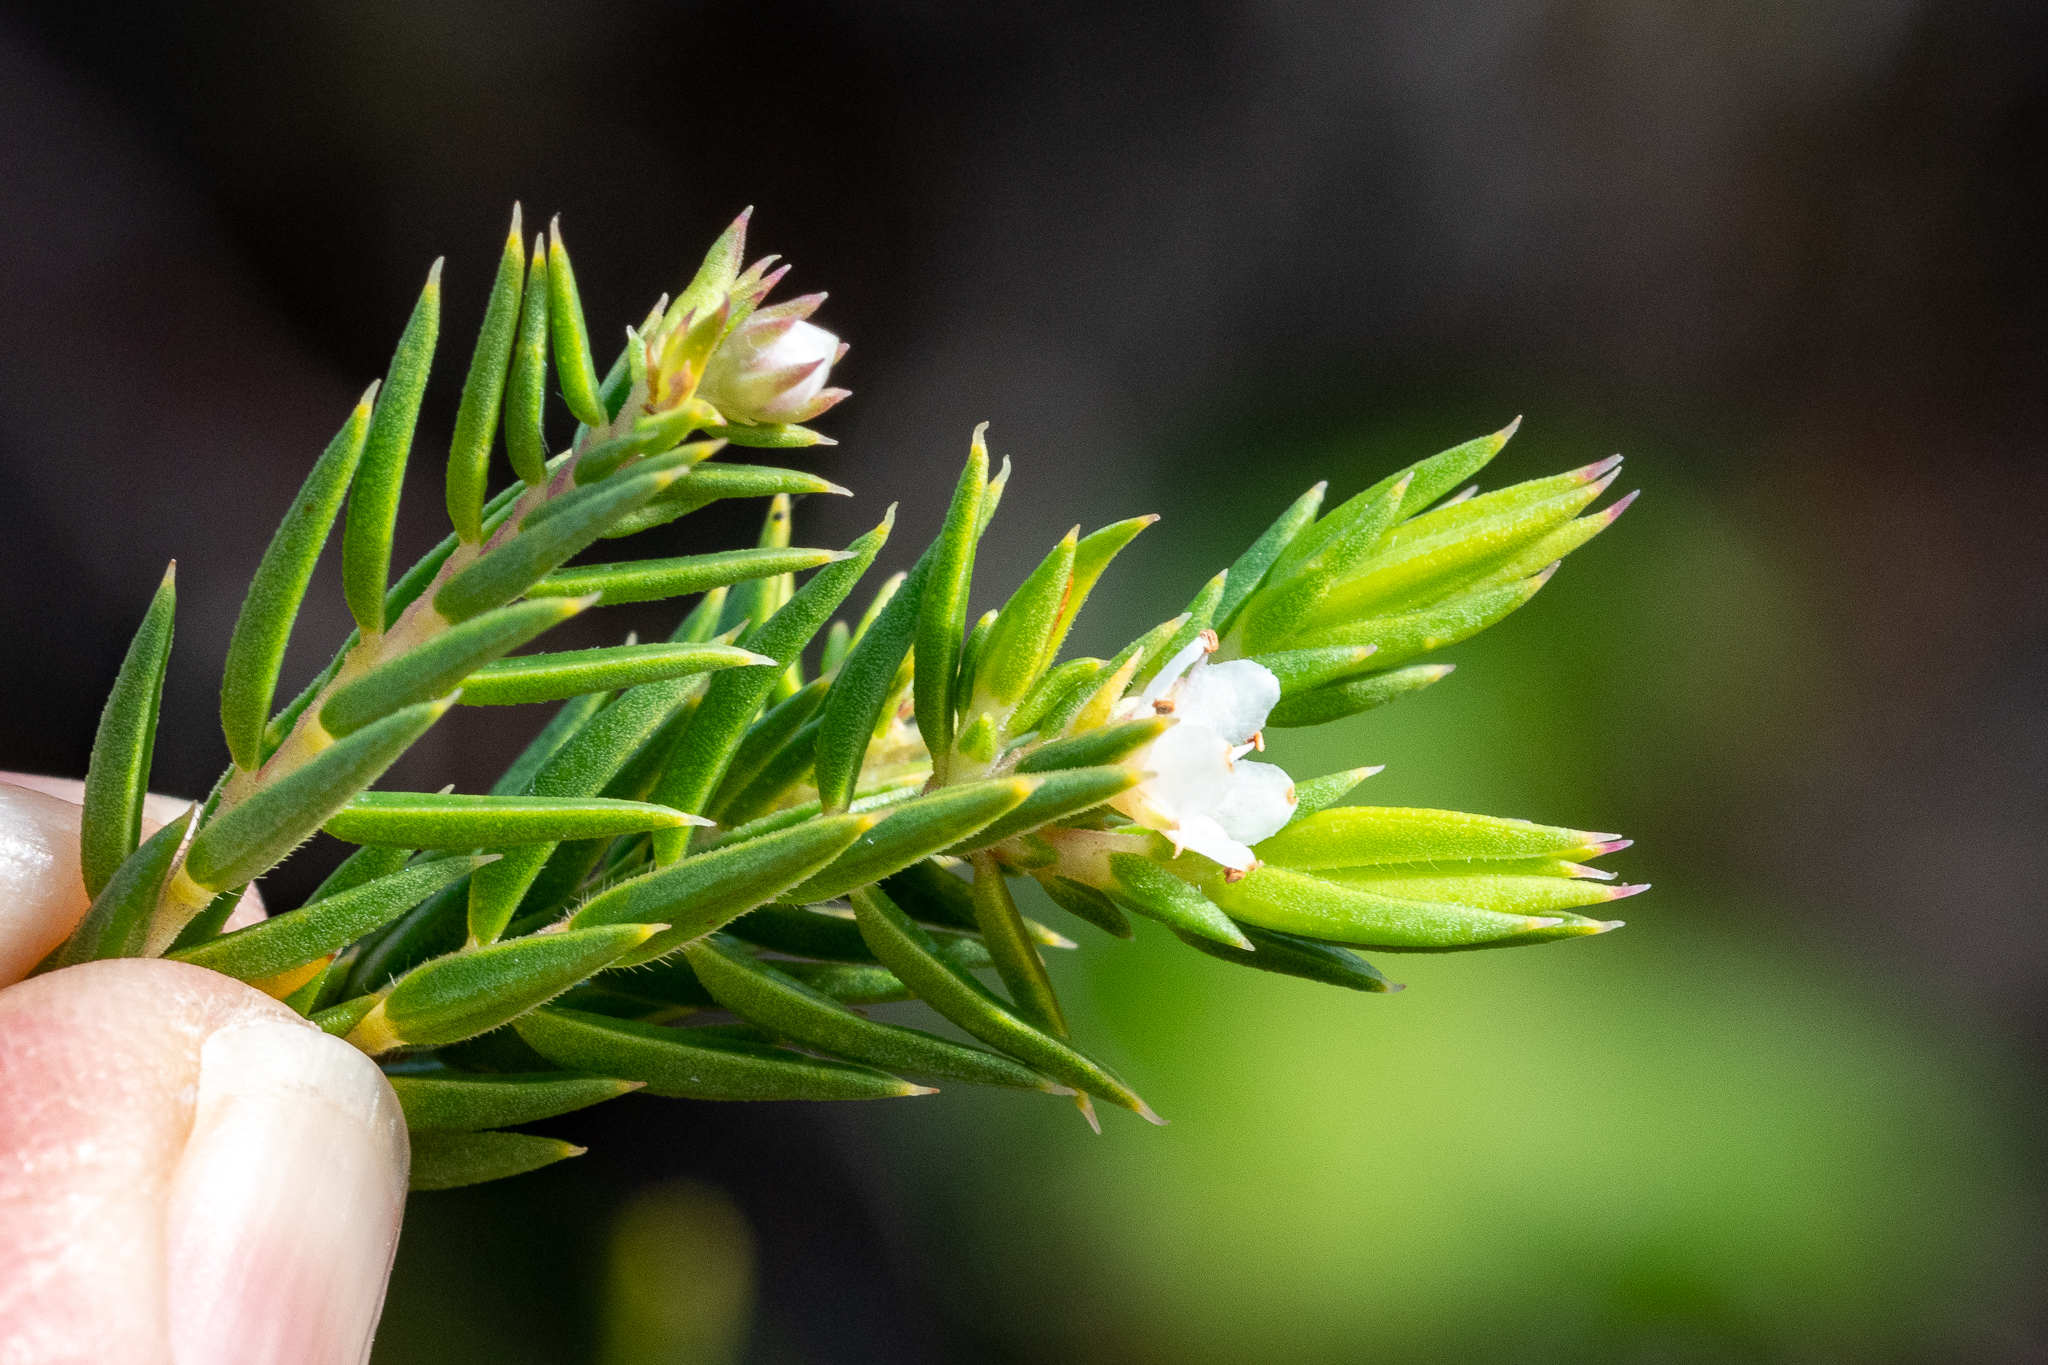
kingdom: Plantae
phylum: Tracheophyta
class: Magnoliopsida
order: Sapindales
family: Rutaceae
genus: Diosma
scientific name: Diosma subulata
